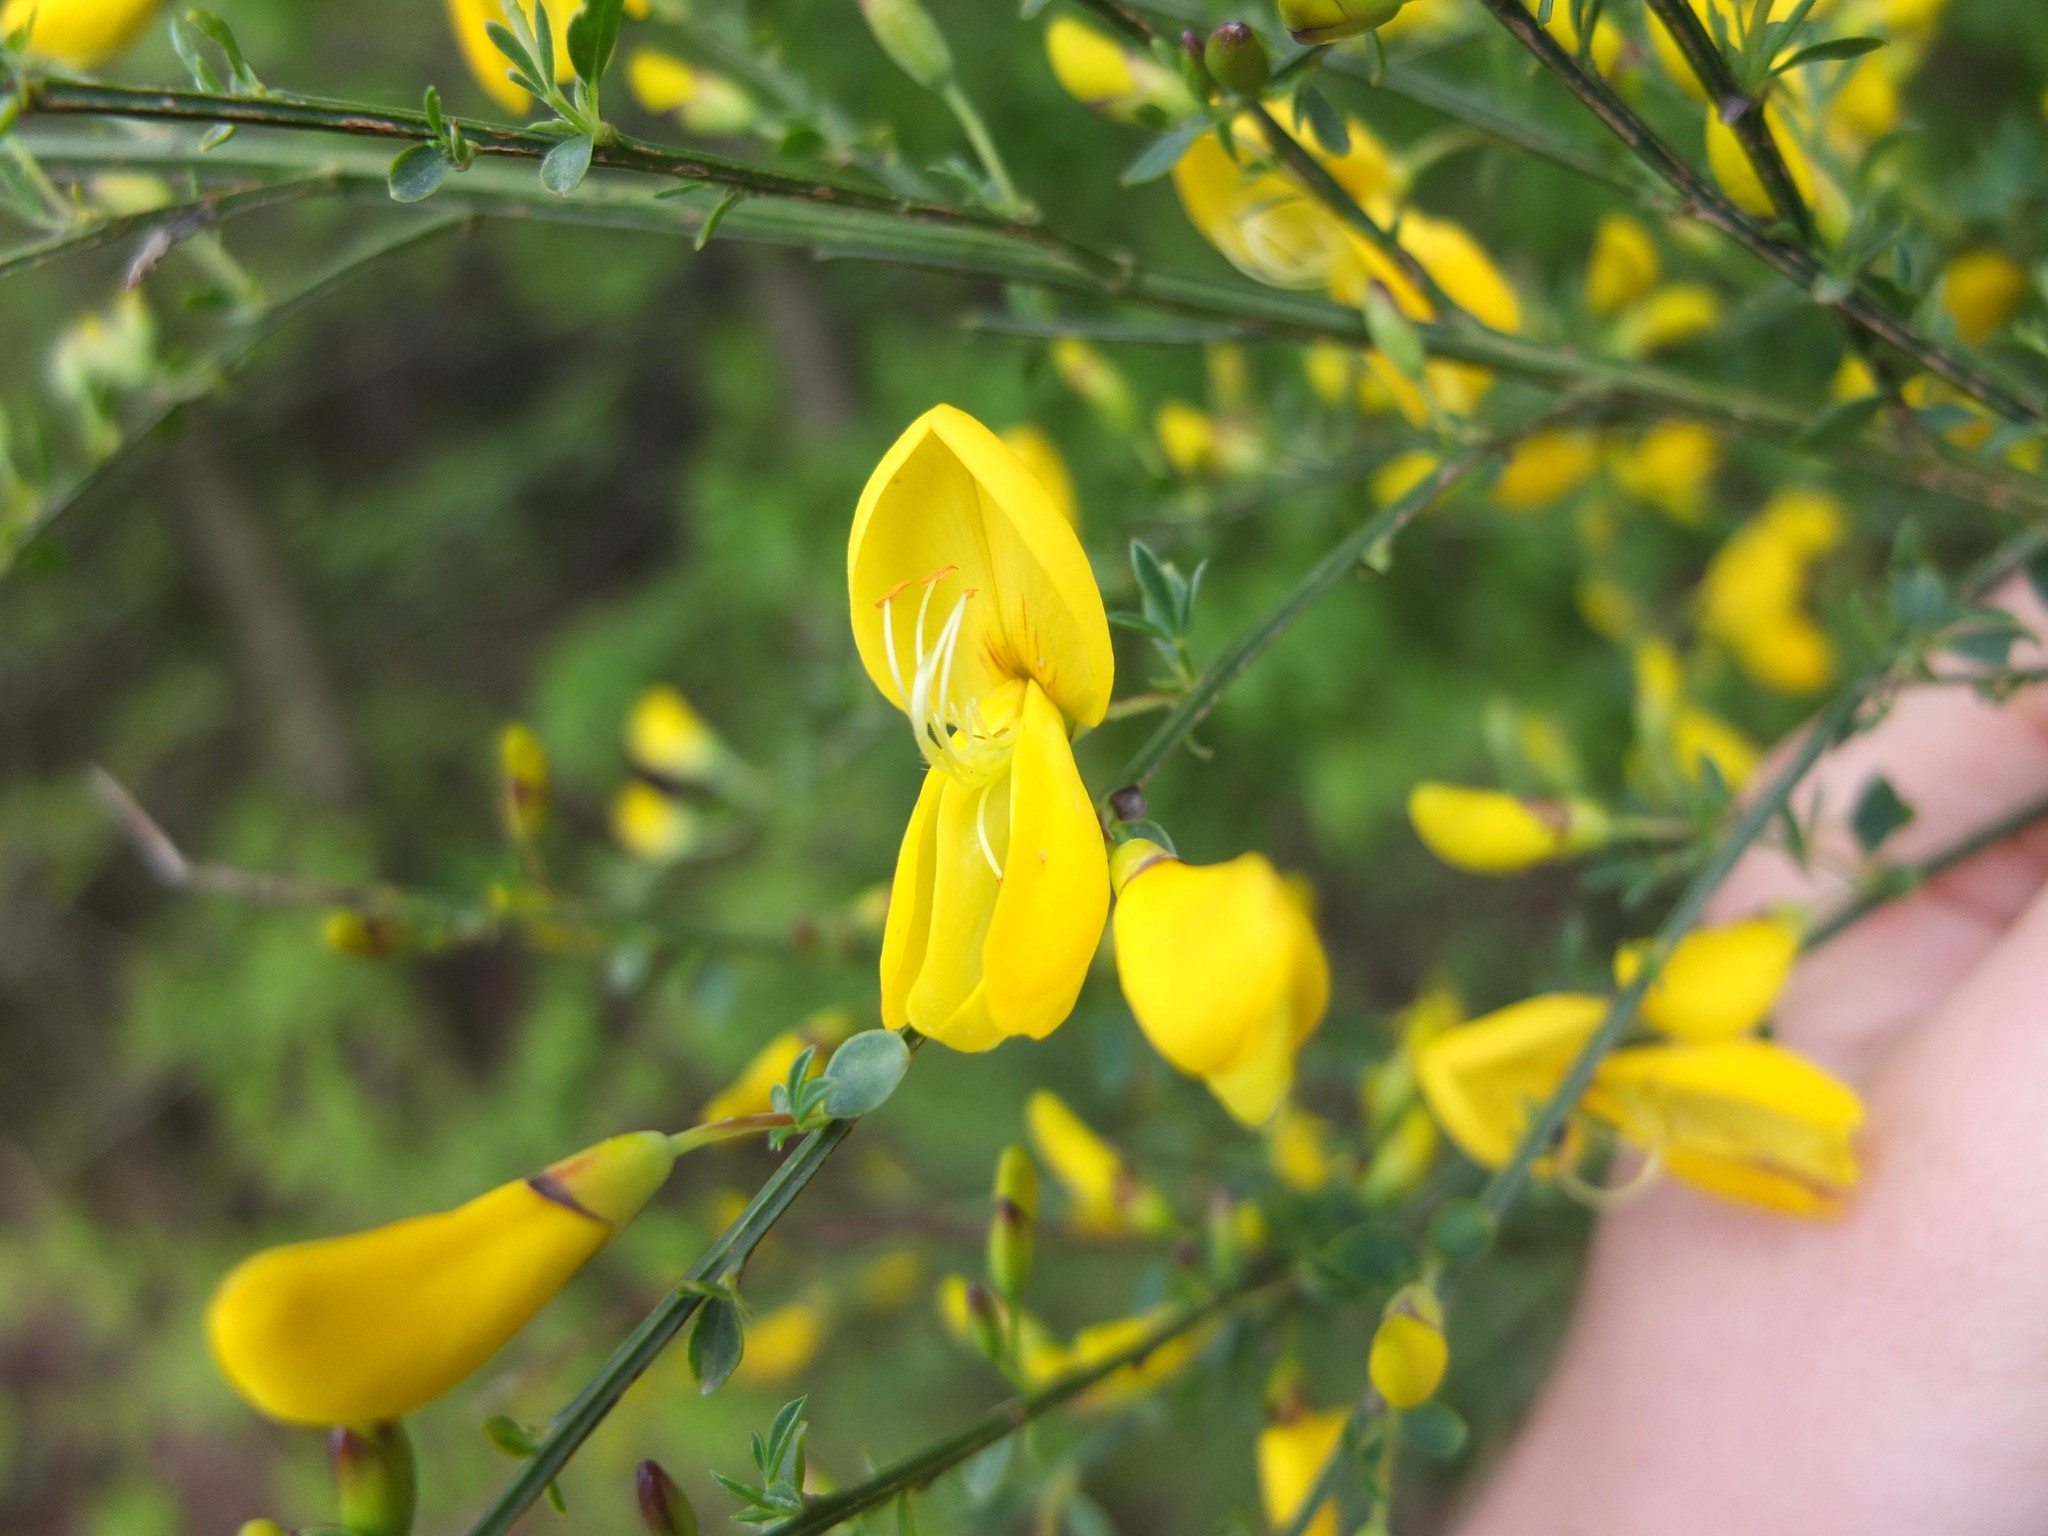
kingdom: Plantae
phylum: Tracheophyta
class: Magnoliopsida
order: Fabales
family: Fabaceae
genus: Cytisus
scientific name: Cytisus scoparius
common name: Scotch broom
